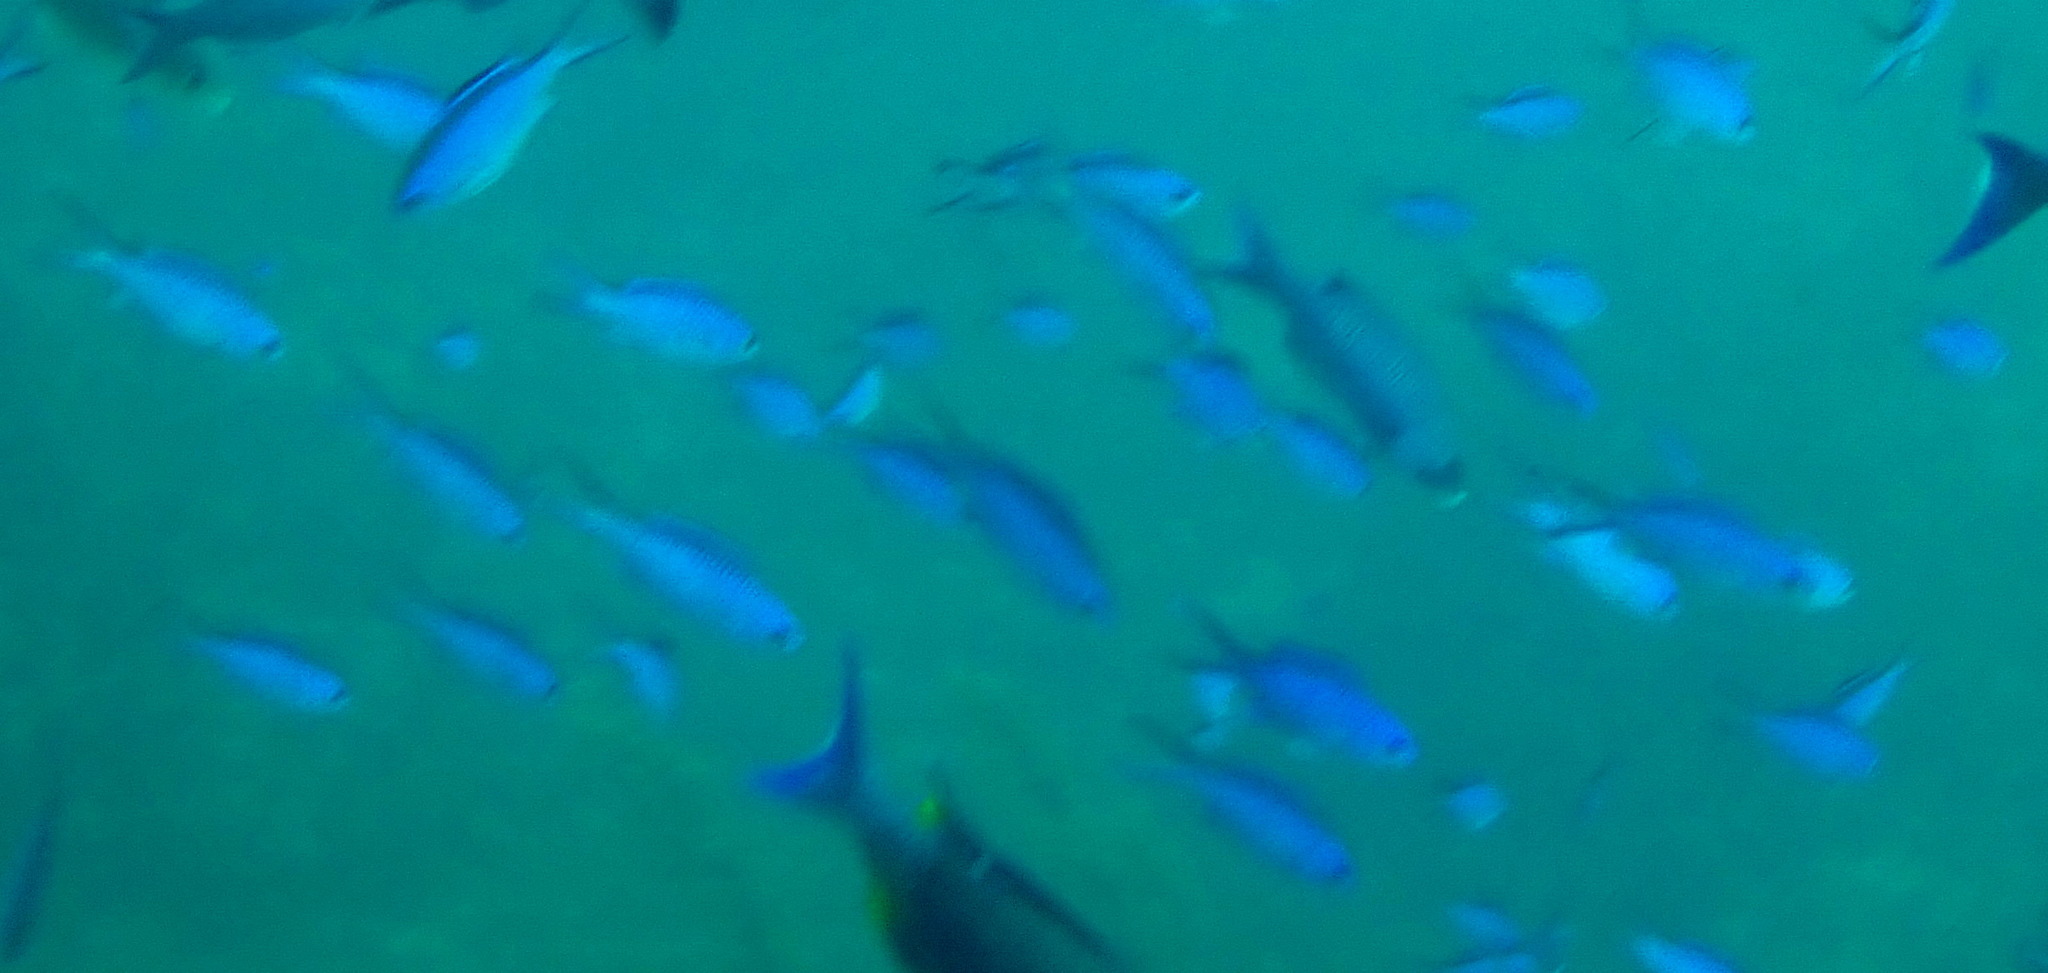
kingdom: Animalia
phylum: Chordata
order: Perciformes
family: Pomacentridae
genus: Chromis
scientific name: Chromis cyanea
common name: Blue chromis
